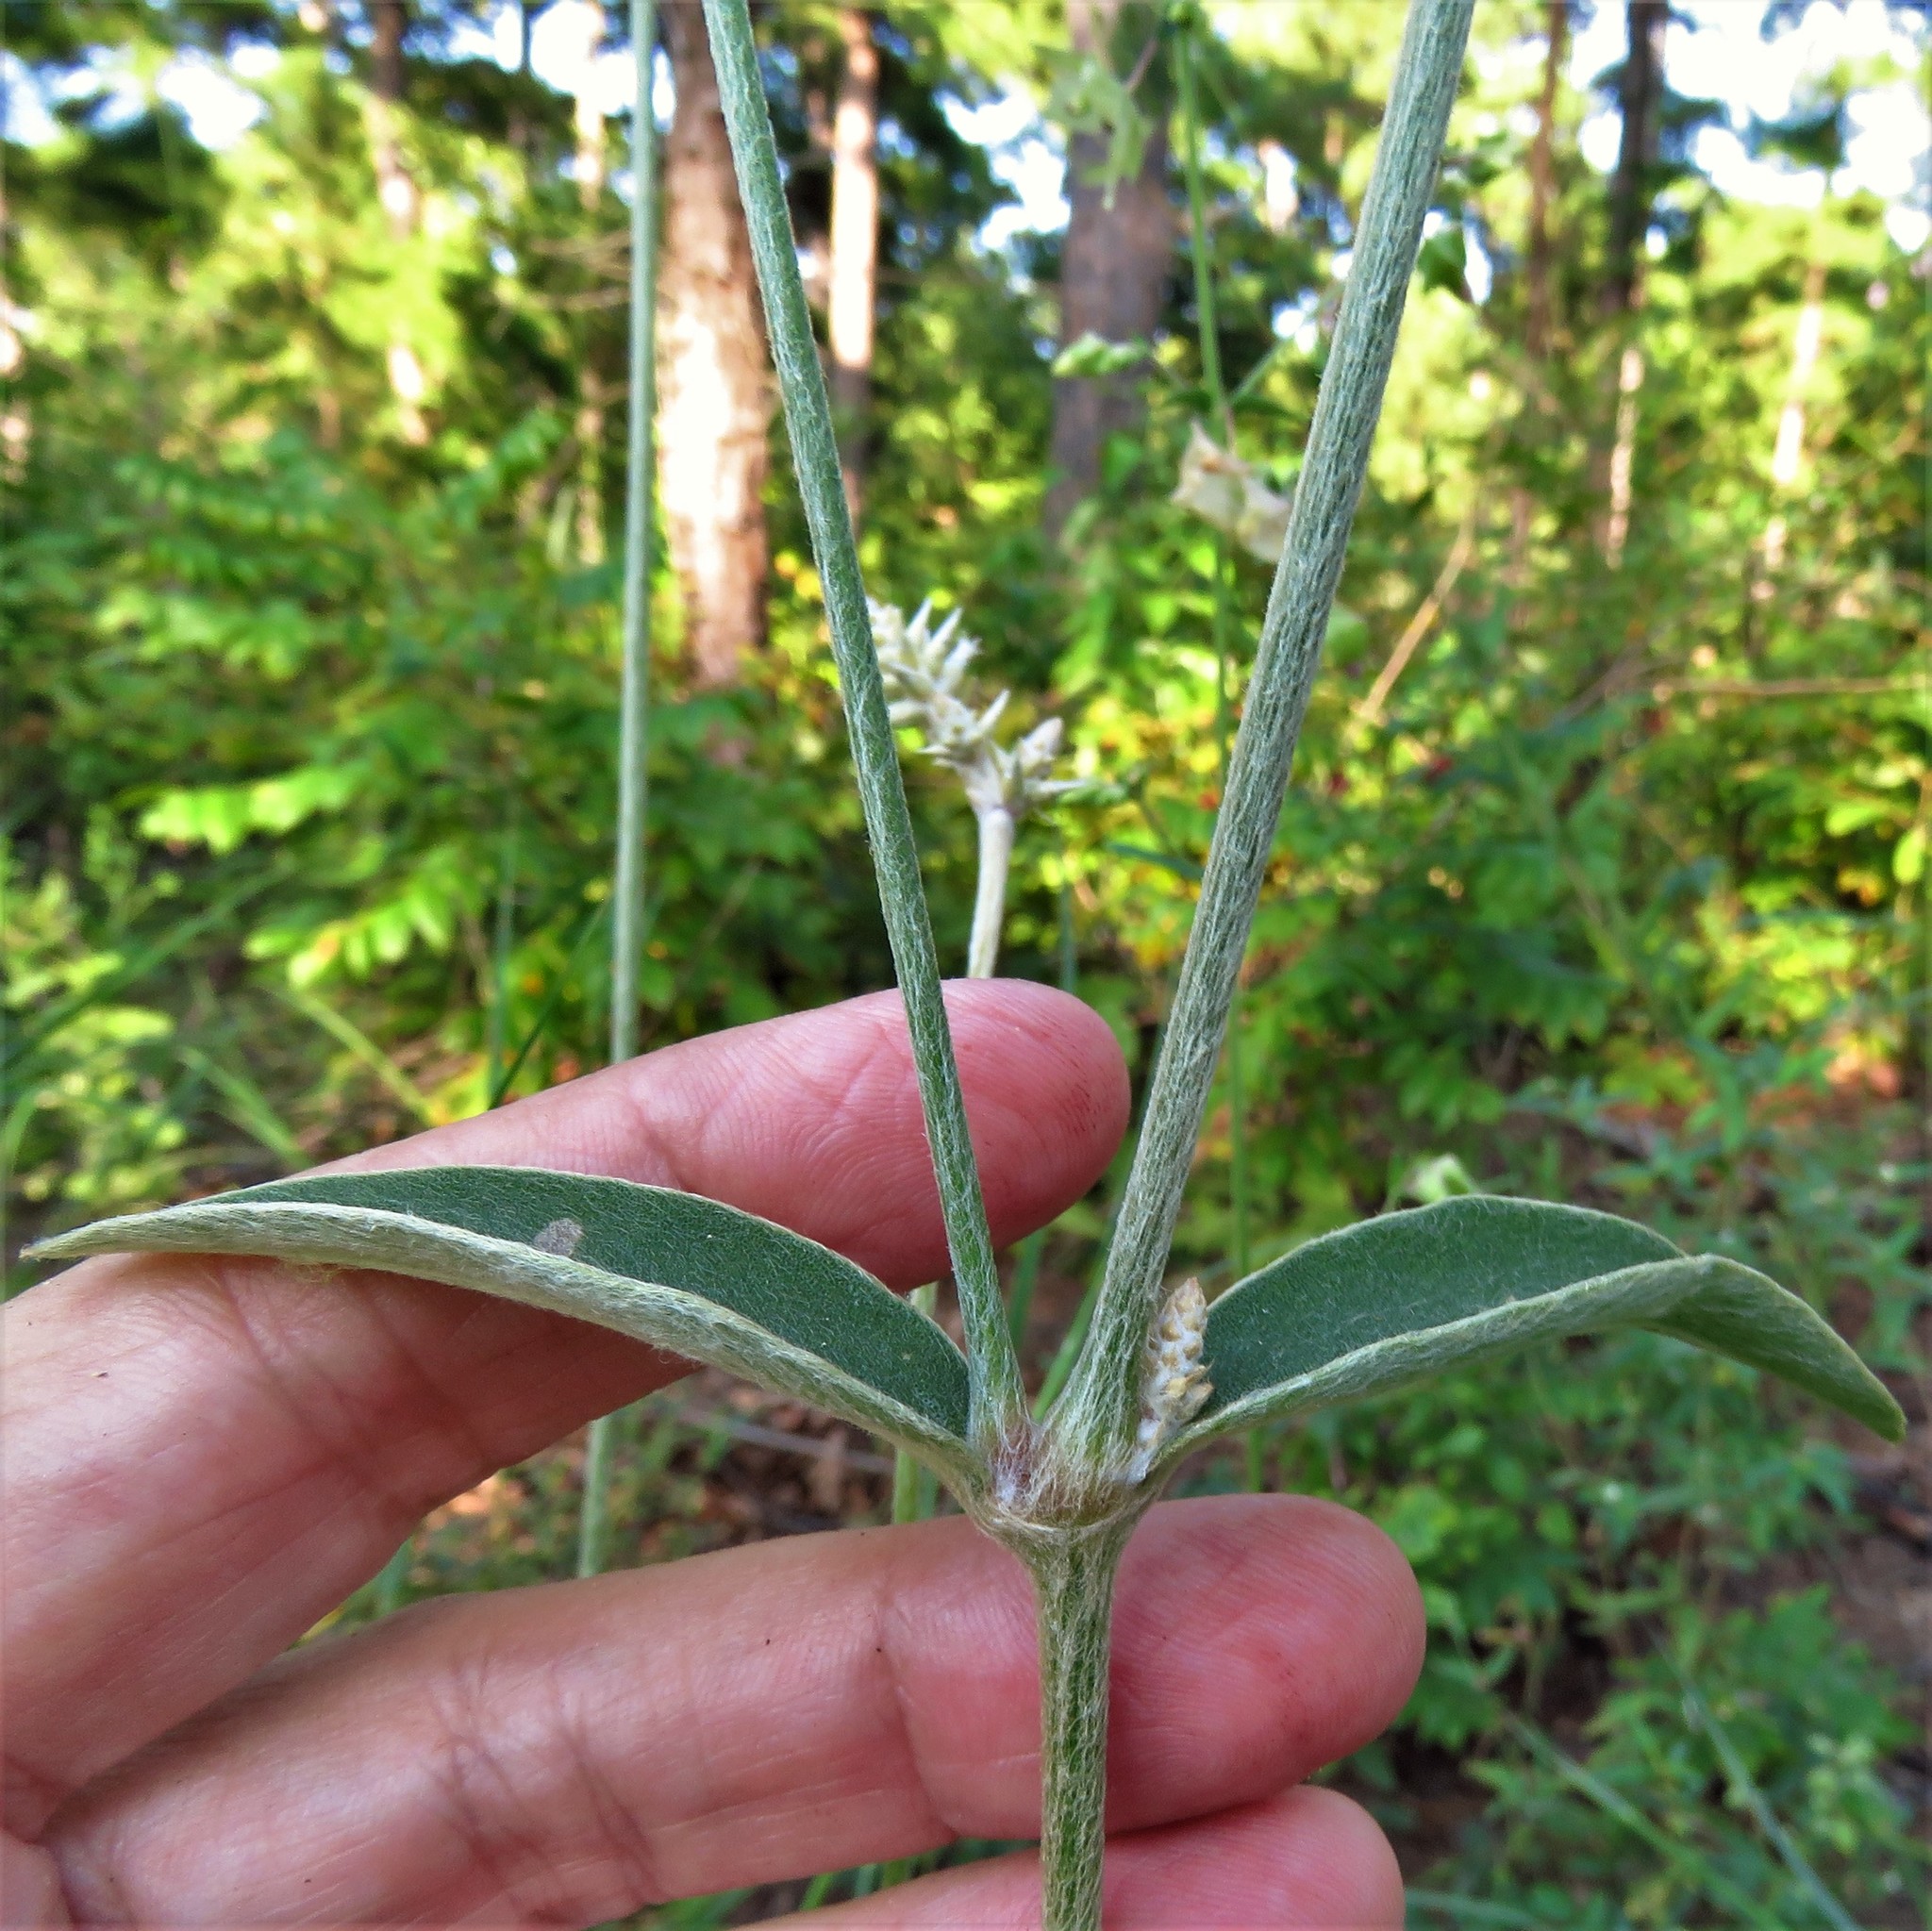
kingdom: Plantae
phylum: Tracheophyta
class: Magnoliopsida
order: Caryophyllales
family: Amaranthaceae
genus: Froelichia
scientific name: Froelichia floridana
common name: Florida snake-cotton
